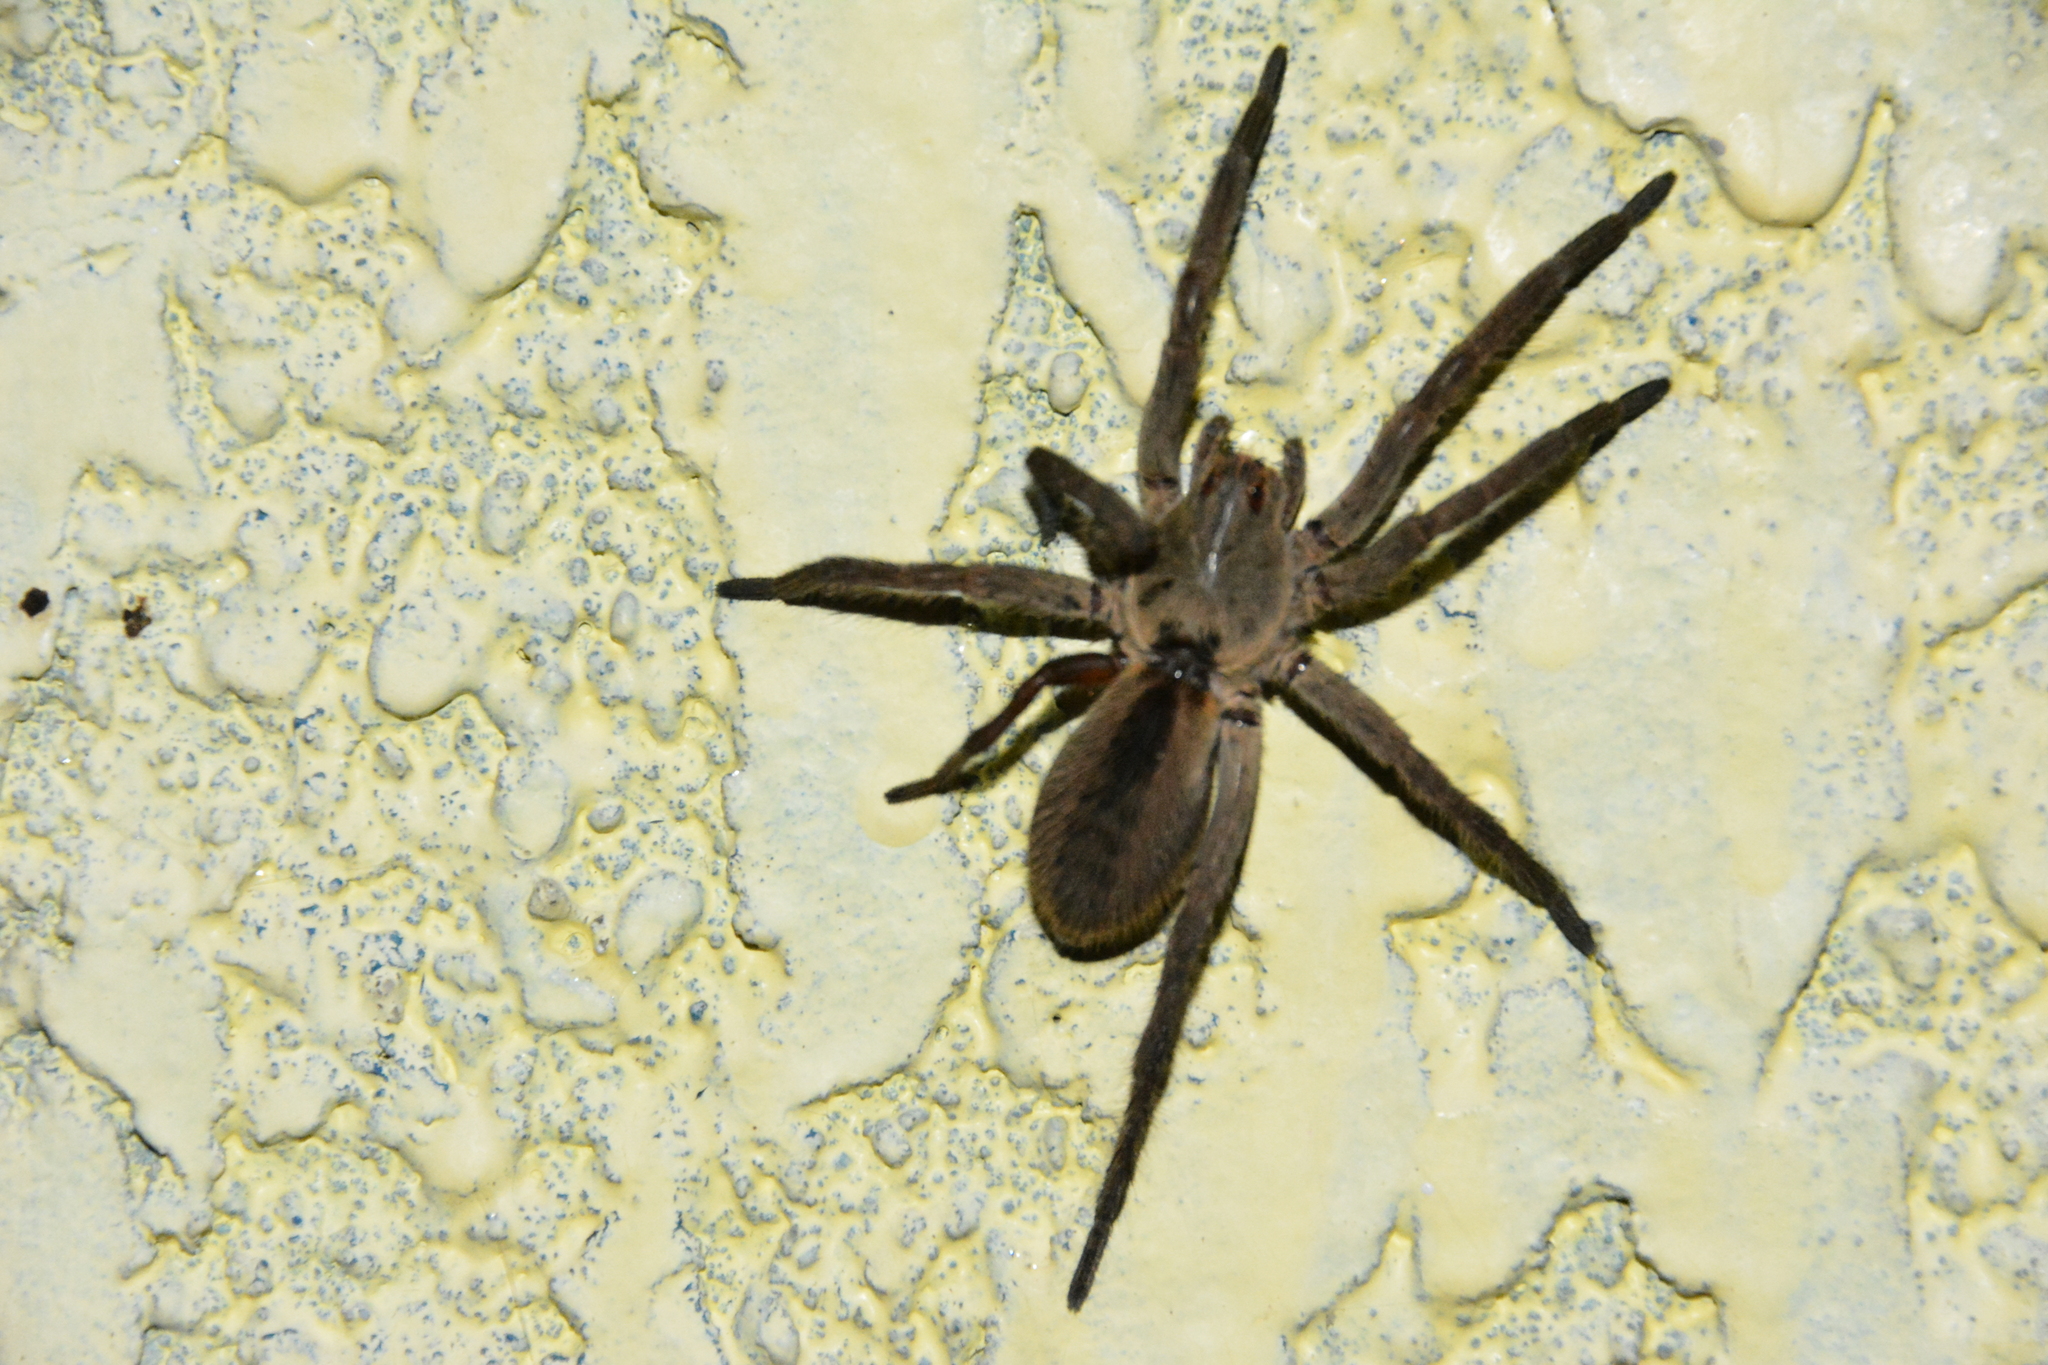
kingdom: Animalia
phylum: Arthropoda
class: Arachnida
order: Araneae
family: Lycosidae
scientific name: Lycosidae
